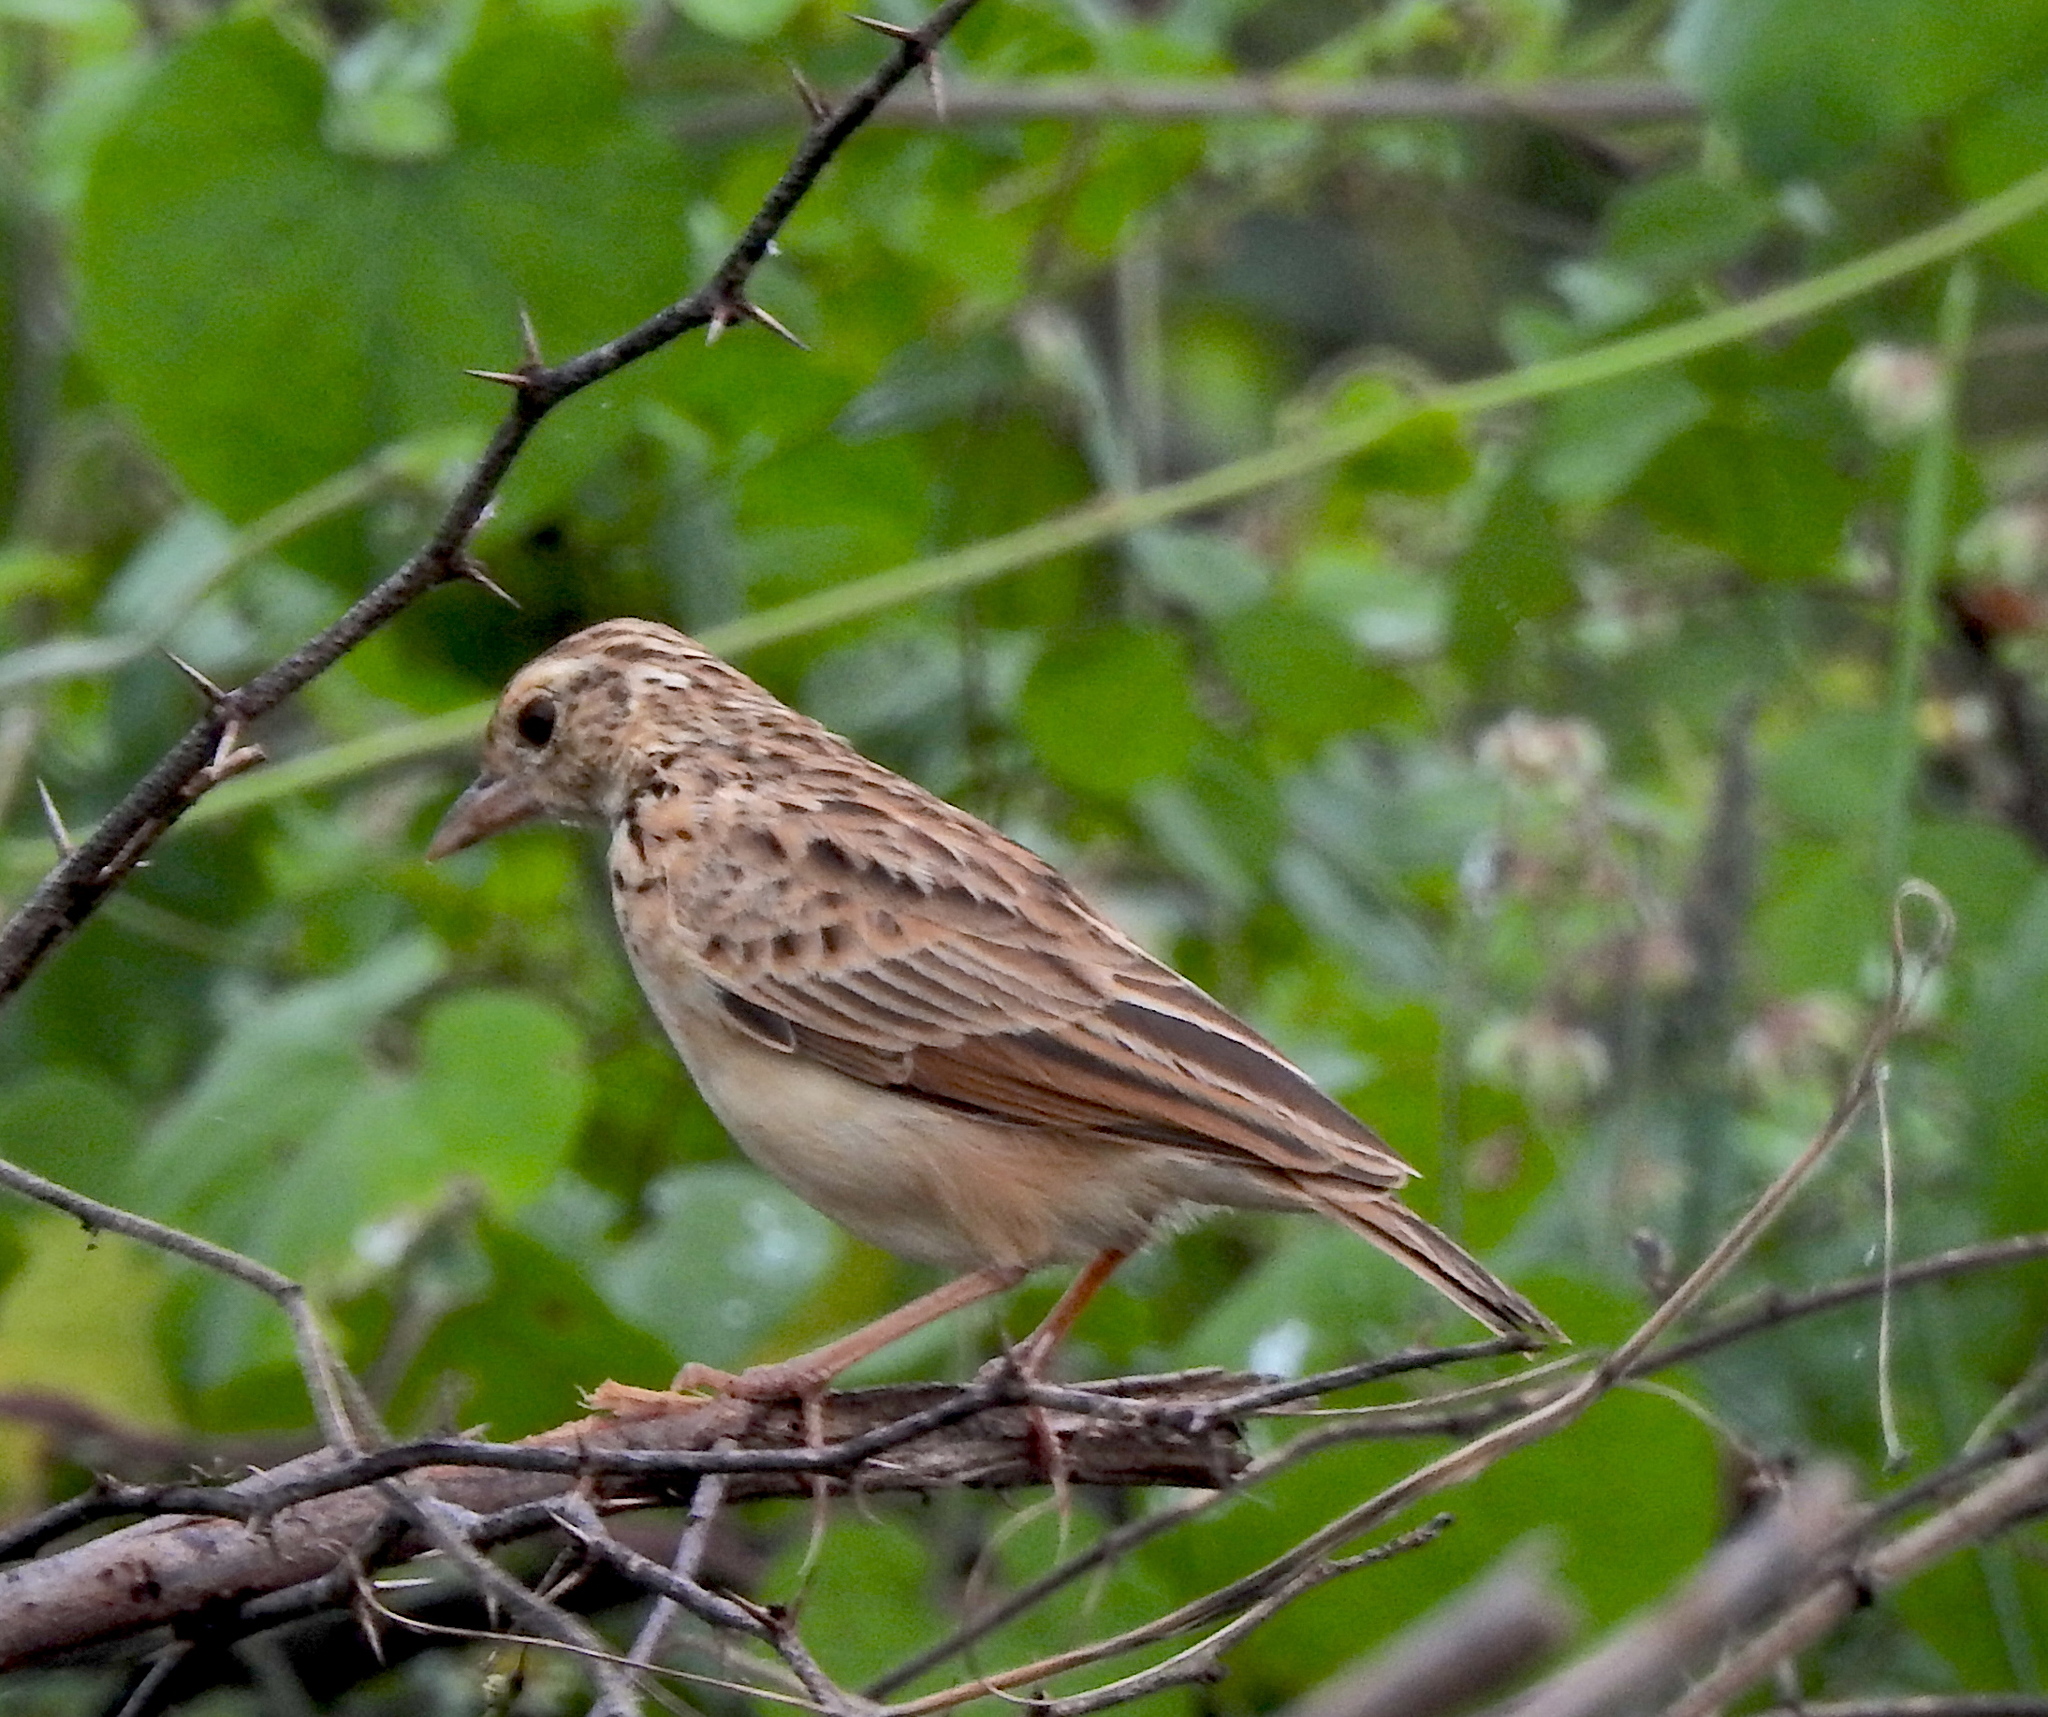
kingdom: Animalia
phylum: Chordata
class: Aves
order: Passeriformes
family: Alaudidae
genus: Mirafra
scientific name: Mirafra affinis
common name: Jerdon's bushlark
